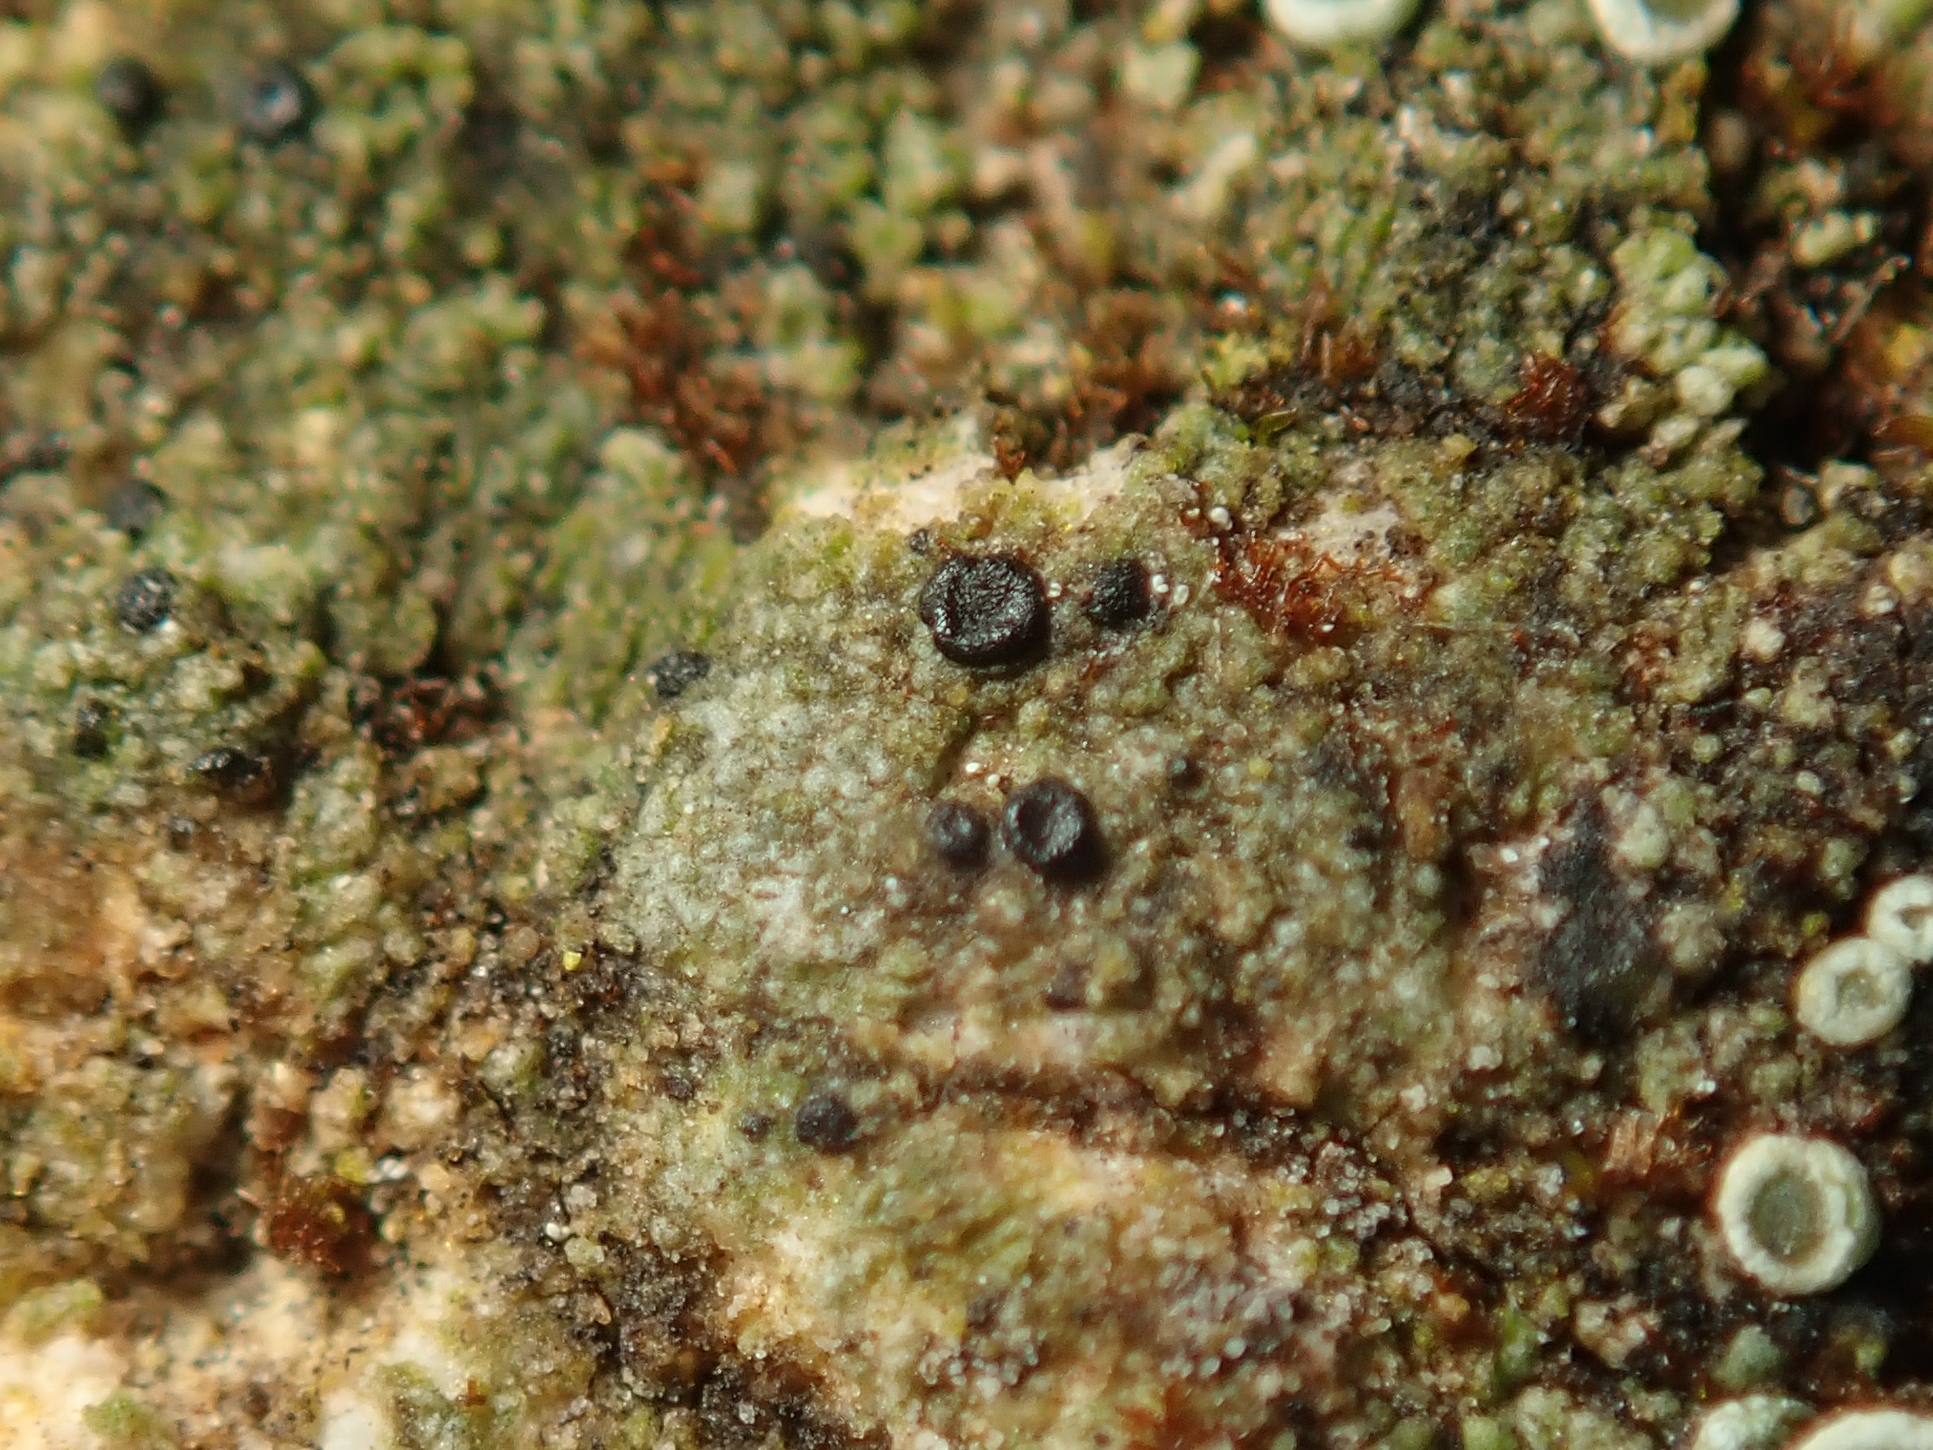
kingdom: Fungi
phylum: Ascomycota
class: Lecanoromycetes
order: Lecanorales
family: Lecanoraceae
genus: Lecidella
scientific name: Lecidella stigmatea
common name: Limestone disc lichen
